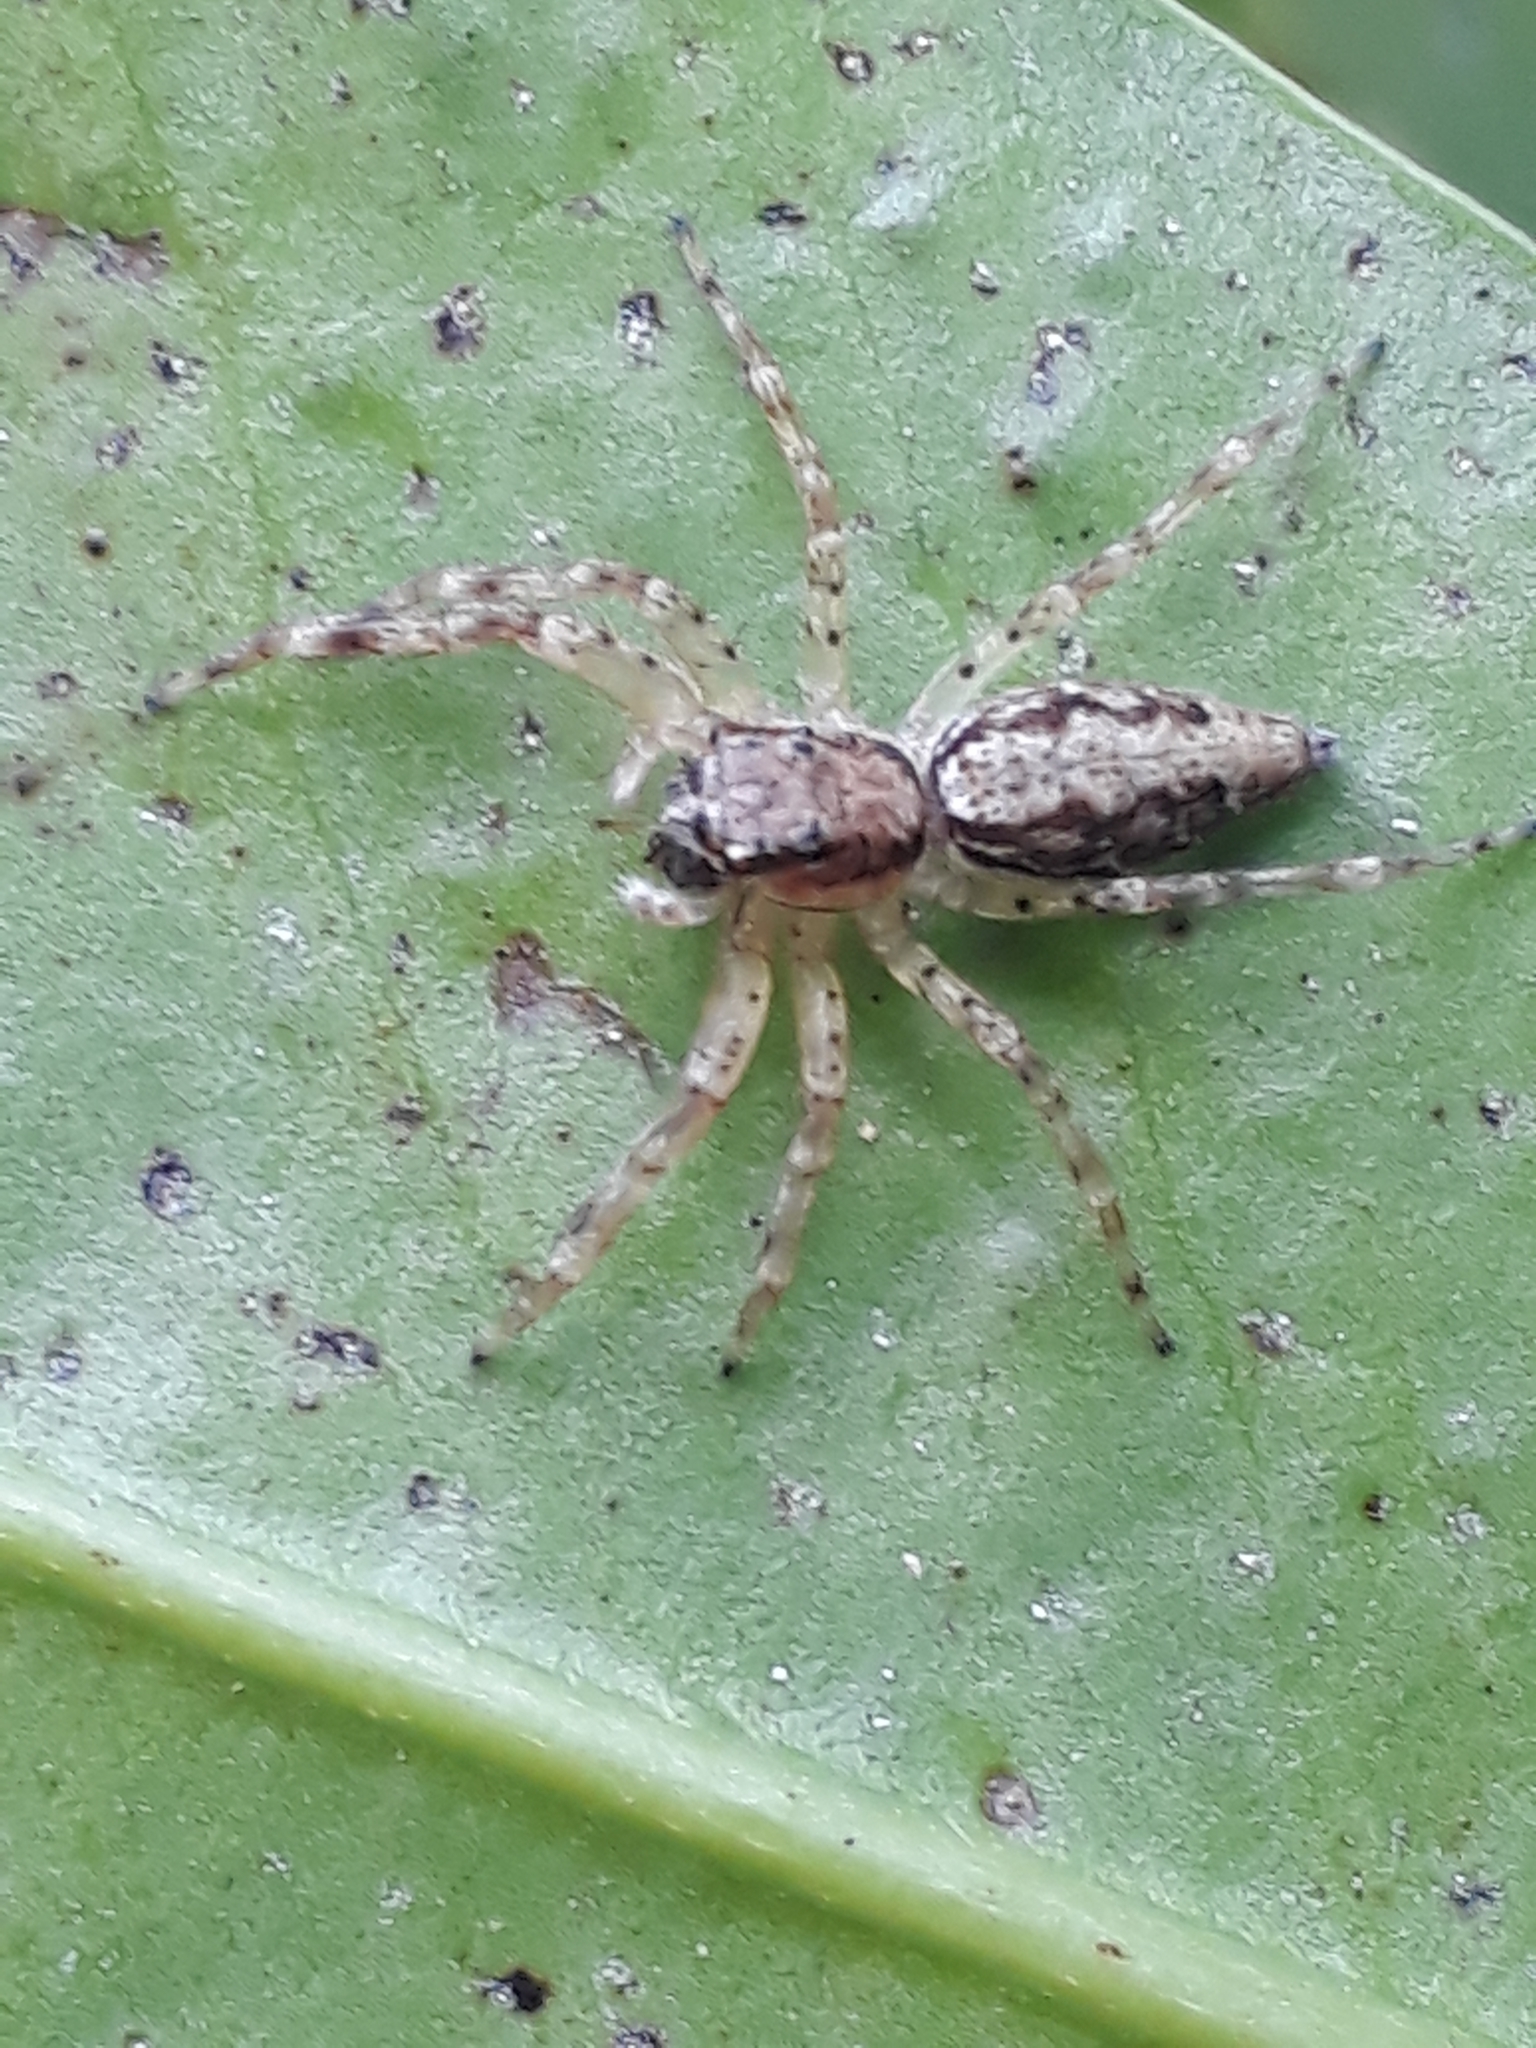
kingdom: Animalia
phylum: Arthropoda
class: Arachnida
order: Araneae
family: Salticidae
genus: Helpis
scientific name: Helpis minitabunda
